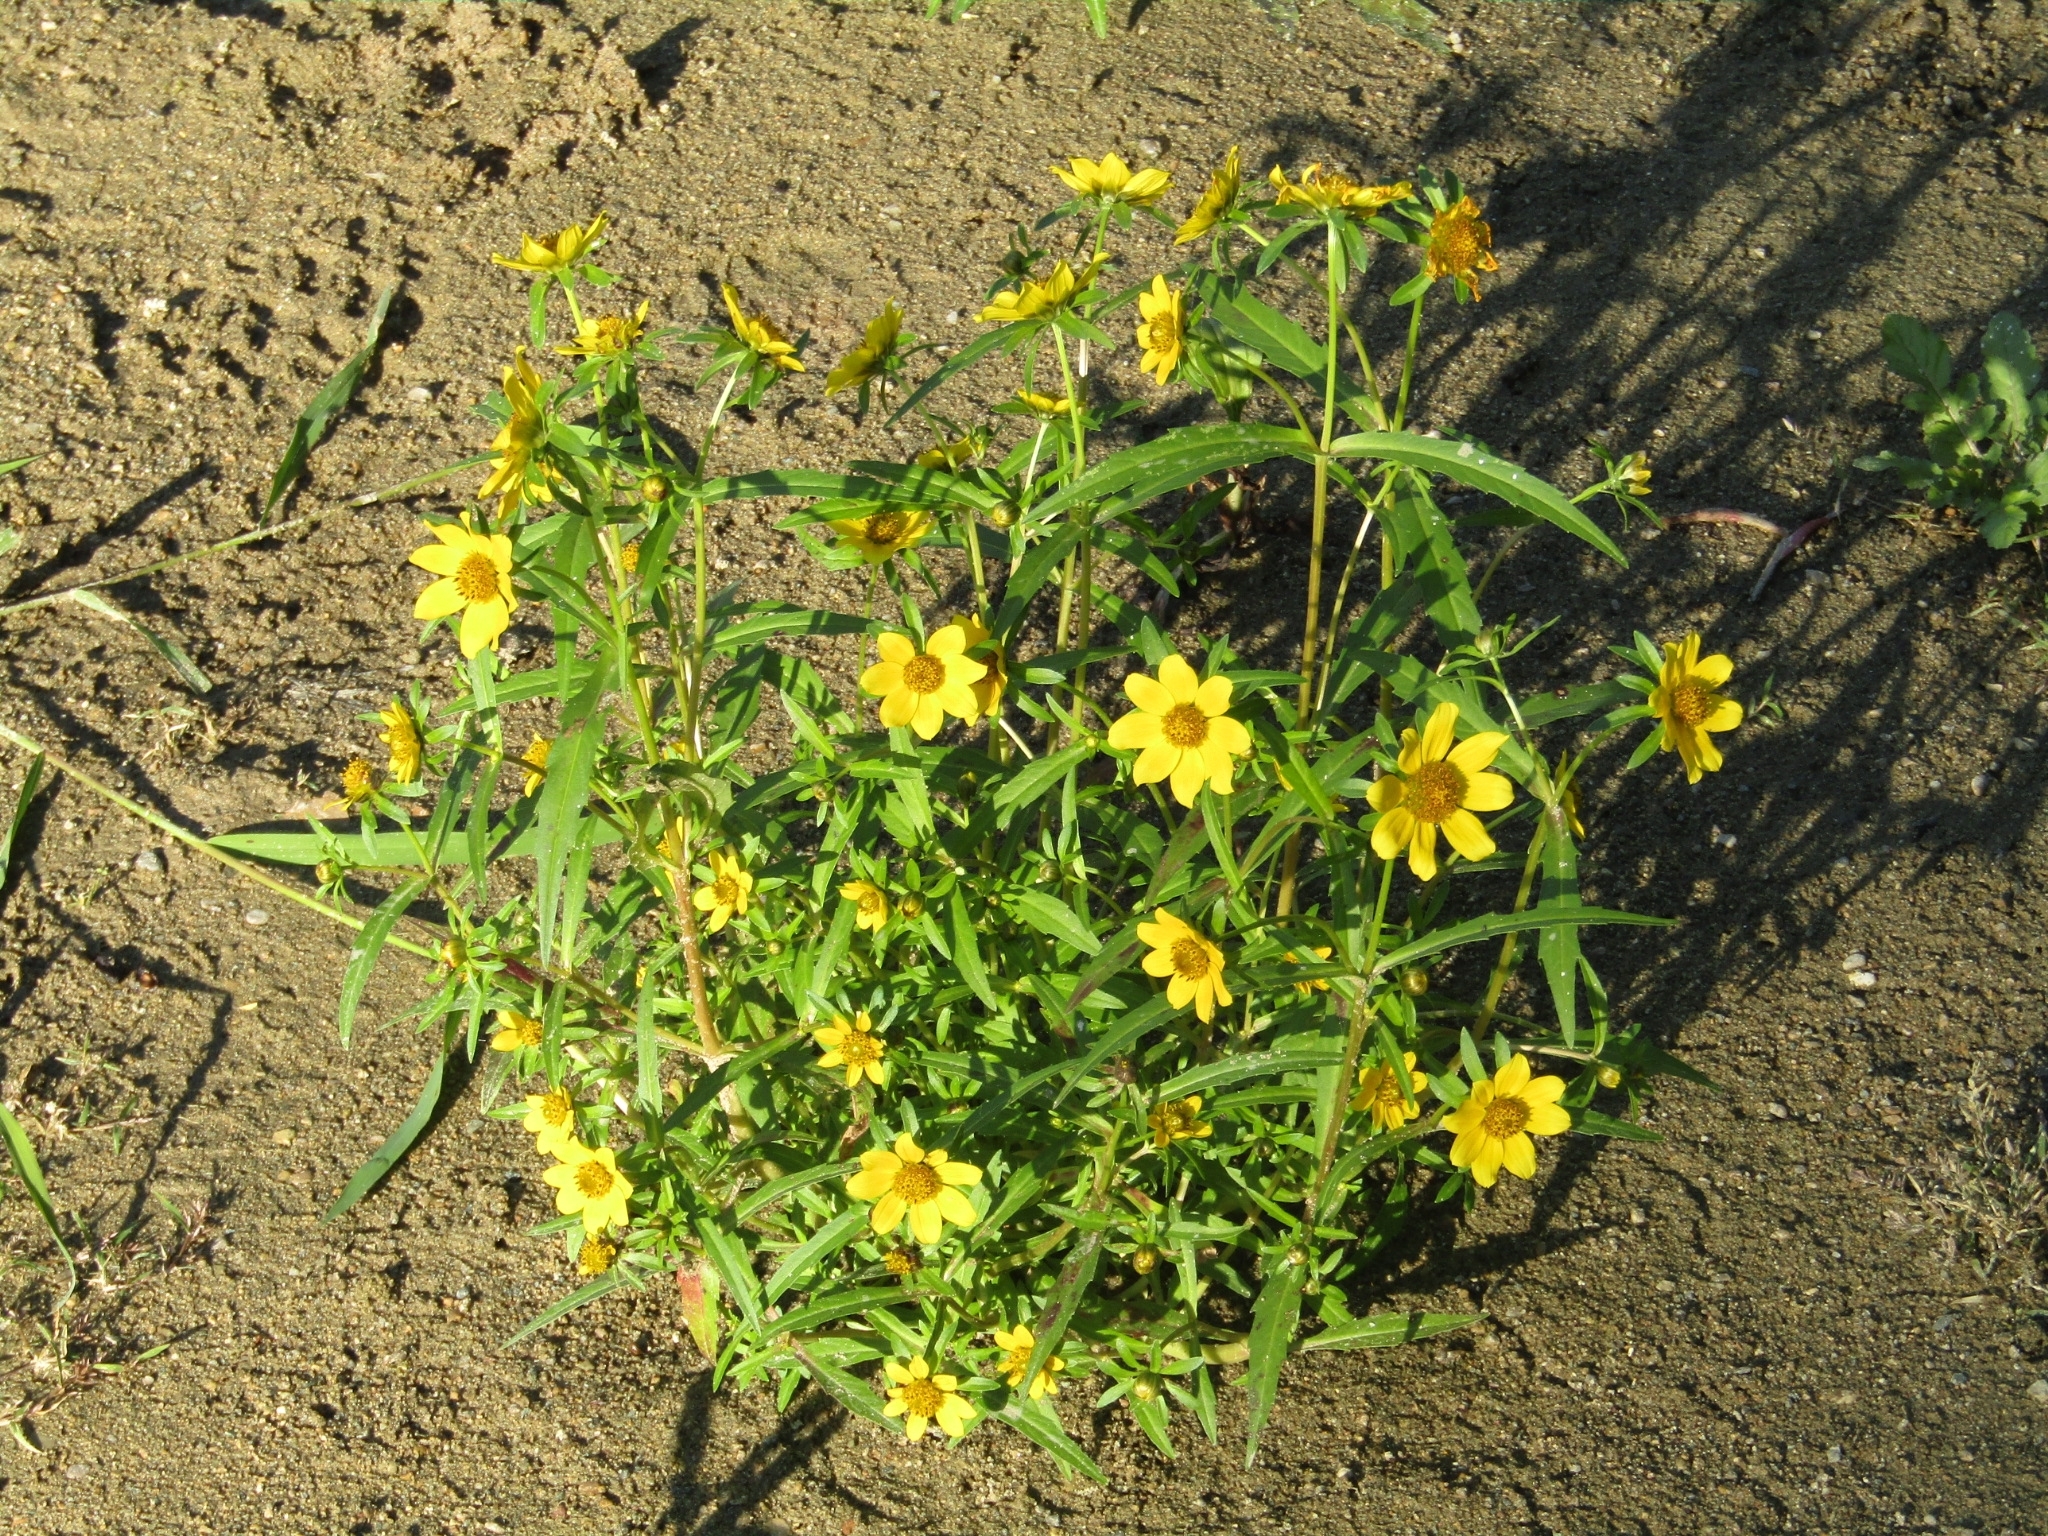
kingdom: Plantae
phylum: Tracheophyta
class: Magnoliopsida
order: Asterales
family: Asteraceae
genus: Bidens
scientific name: Bidens cernua
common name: Nodding bur-marigold
